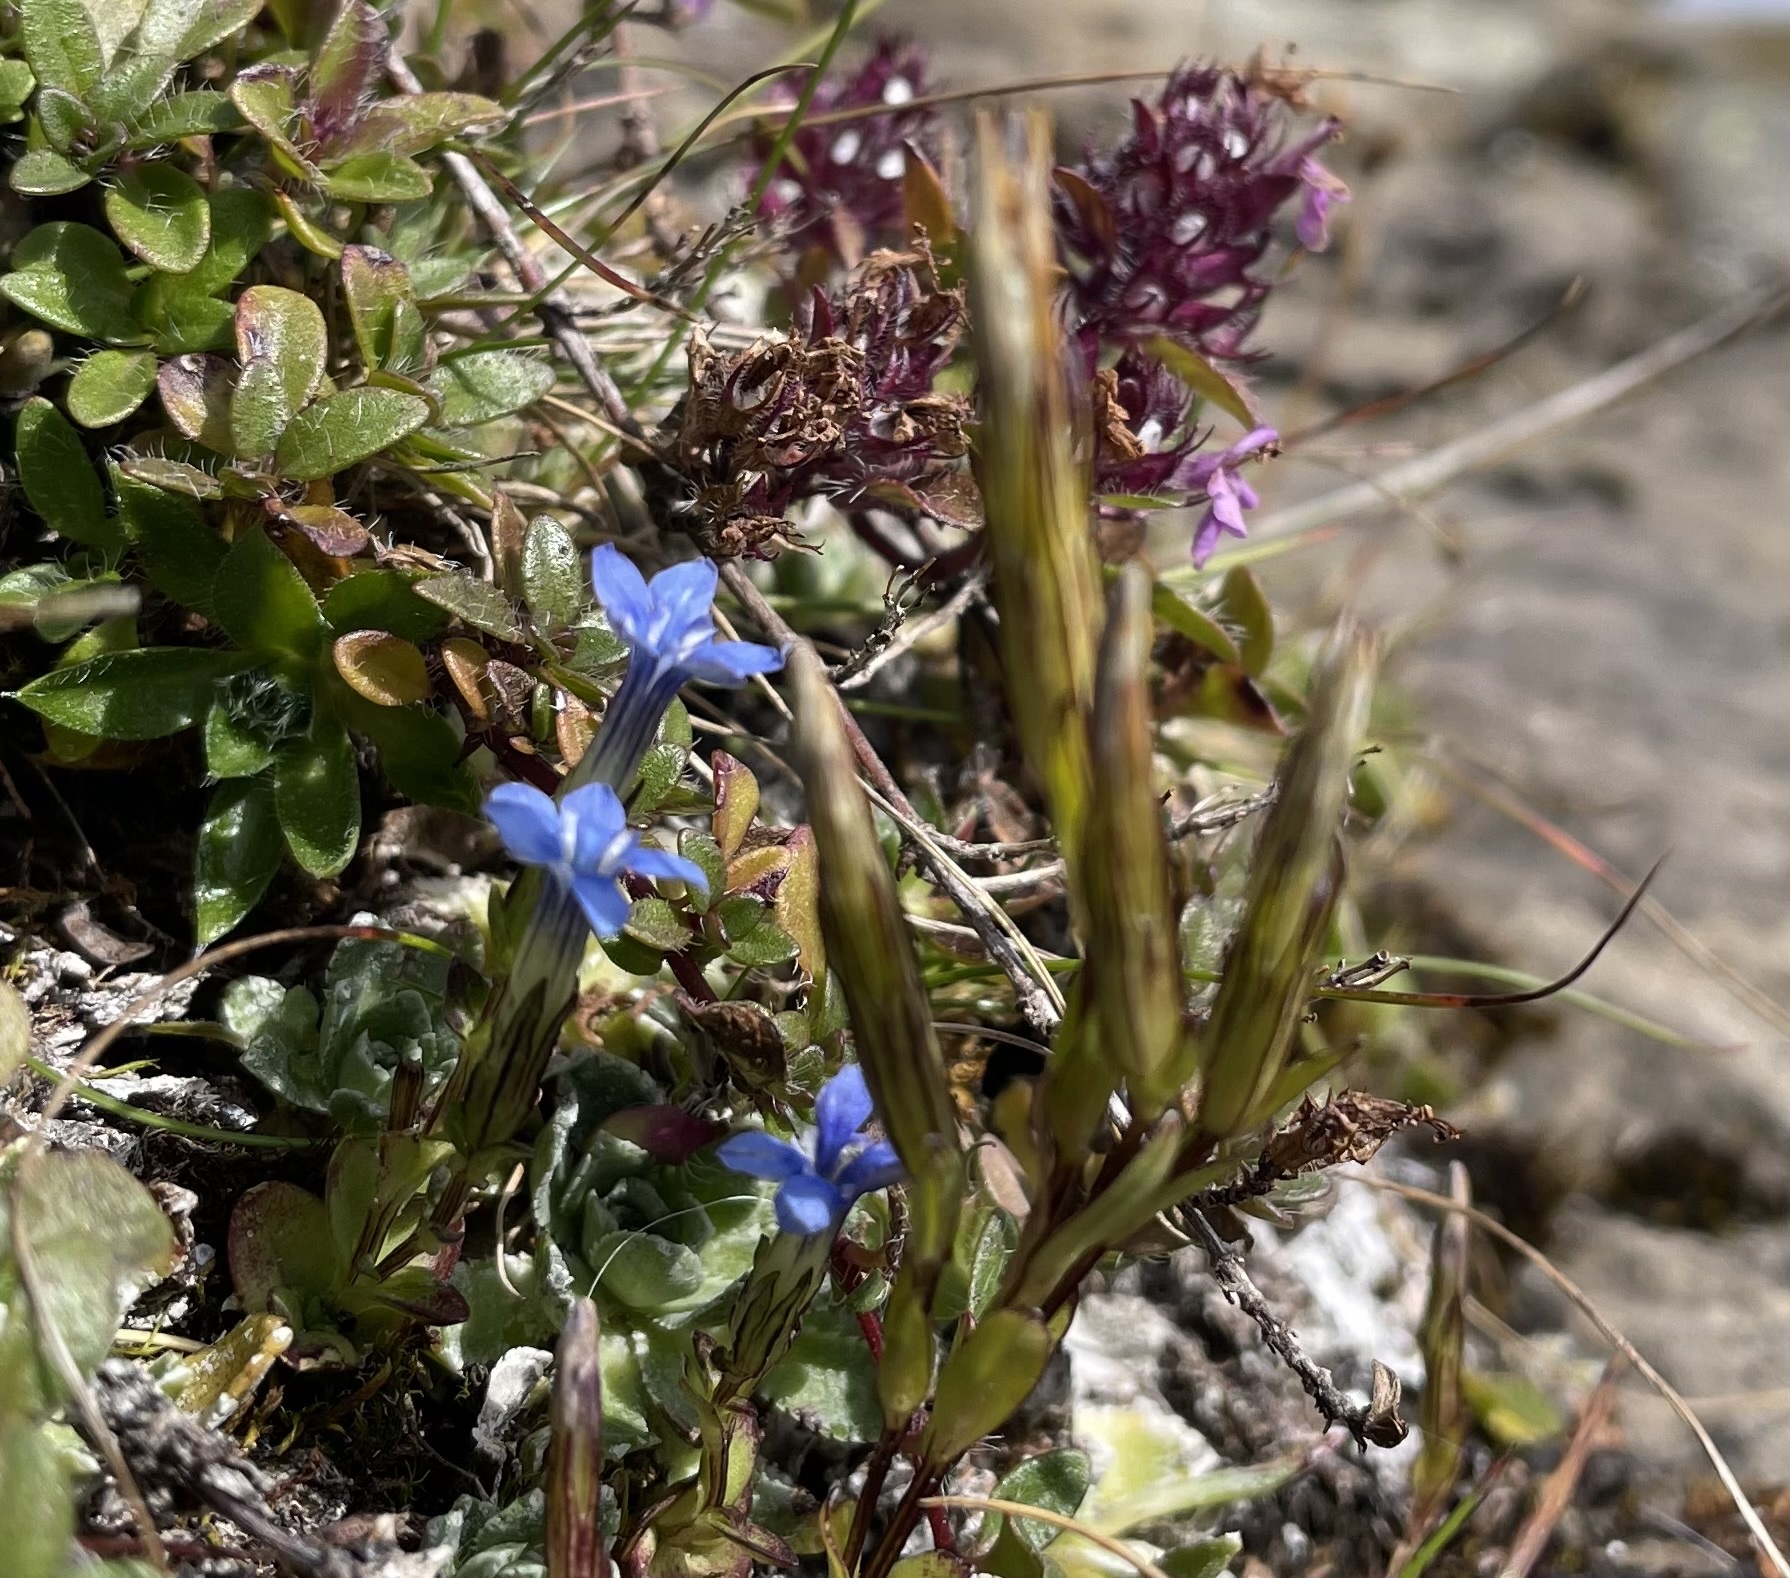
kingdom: Plantae
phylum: Tracheophyta
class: Magnoliopsida
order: Gentianales
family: Gentianaceae
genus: Gentiana
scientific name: Gentiana nivalis
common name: Alpine gentian
